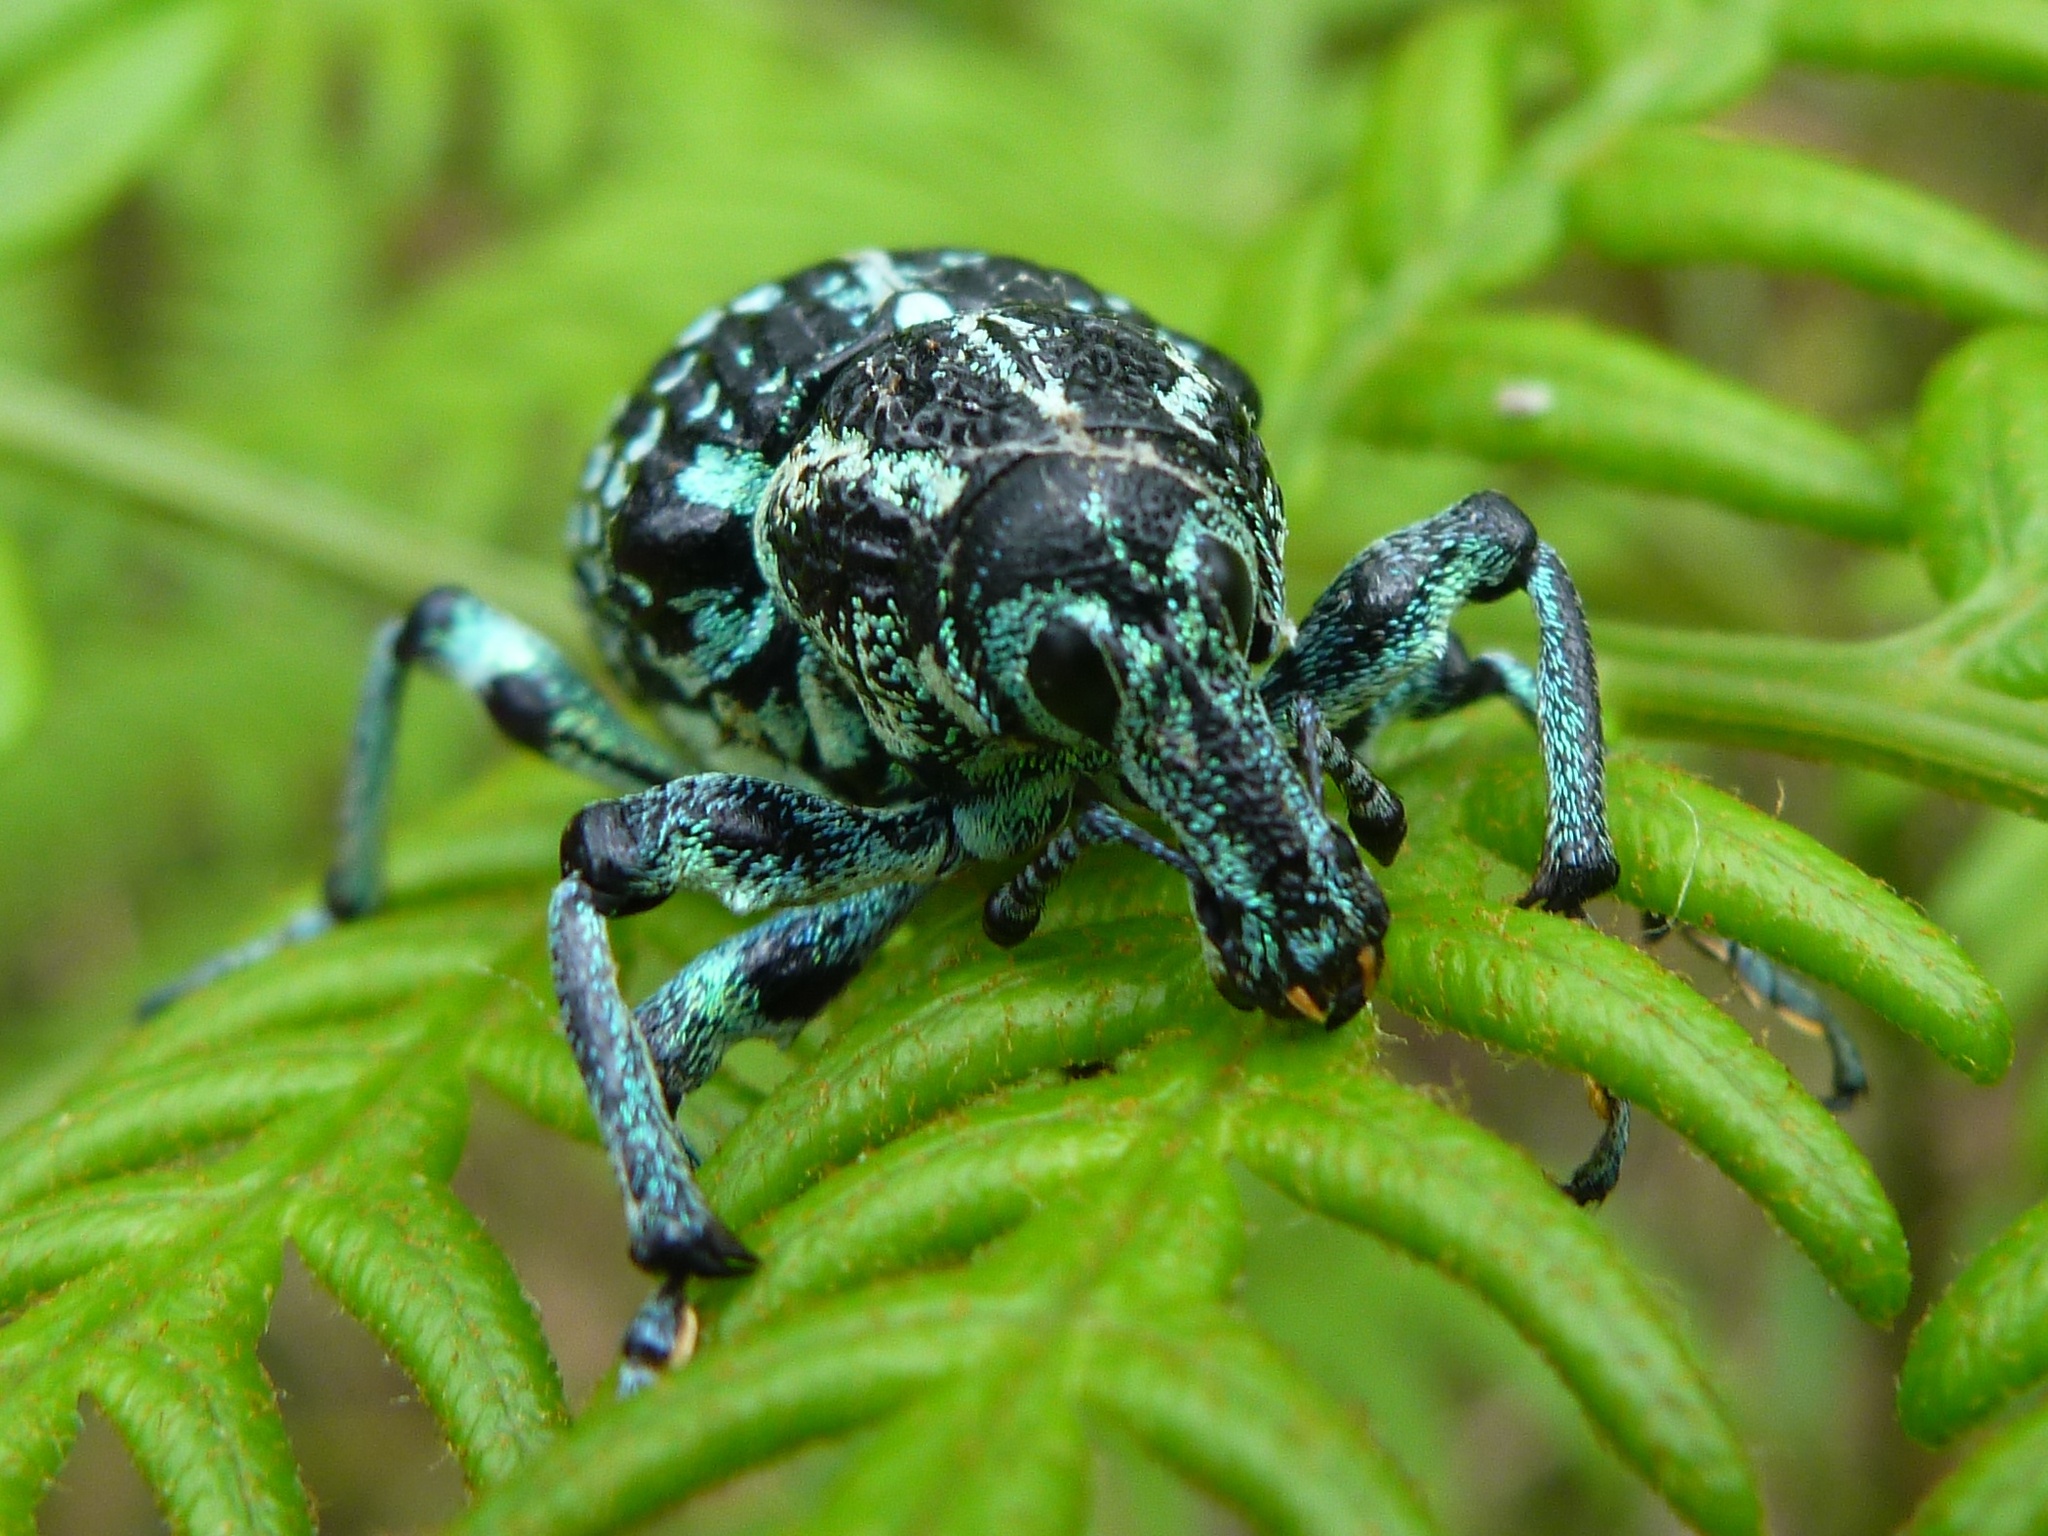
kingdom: Animalia
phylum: Arthropoda
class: Insecta
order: Coleoptera
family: Curculionidae
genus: Chrysolopus
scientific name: Chrysolopus spectabilis
